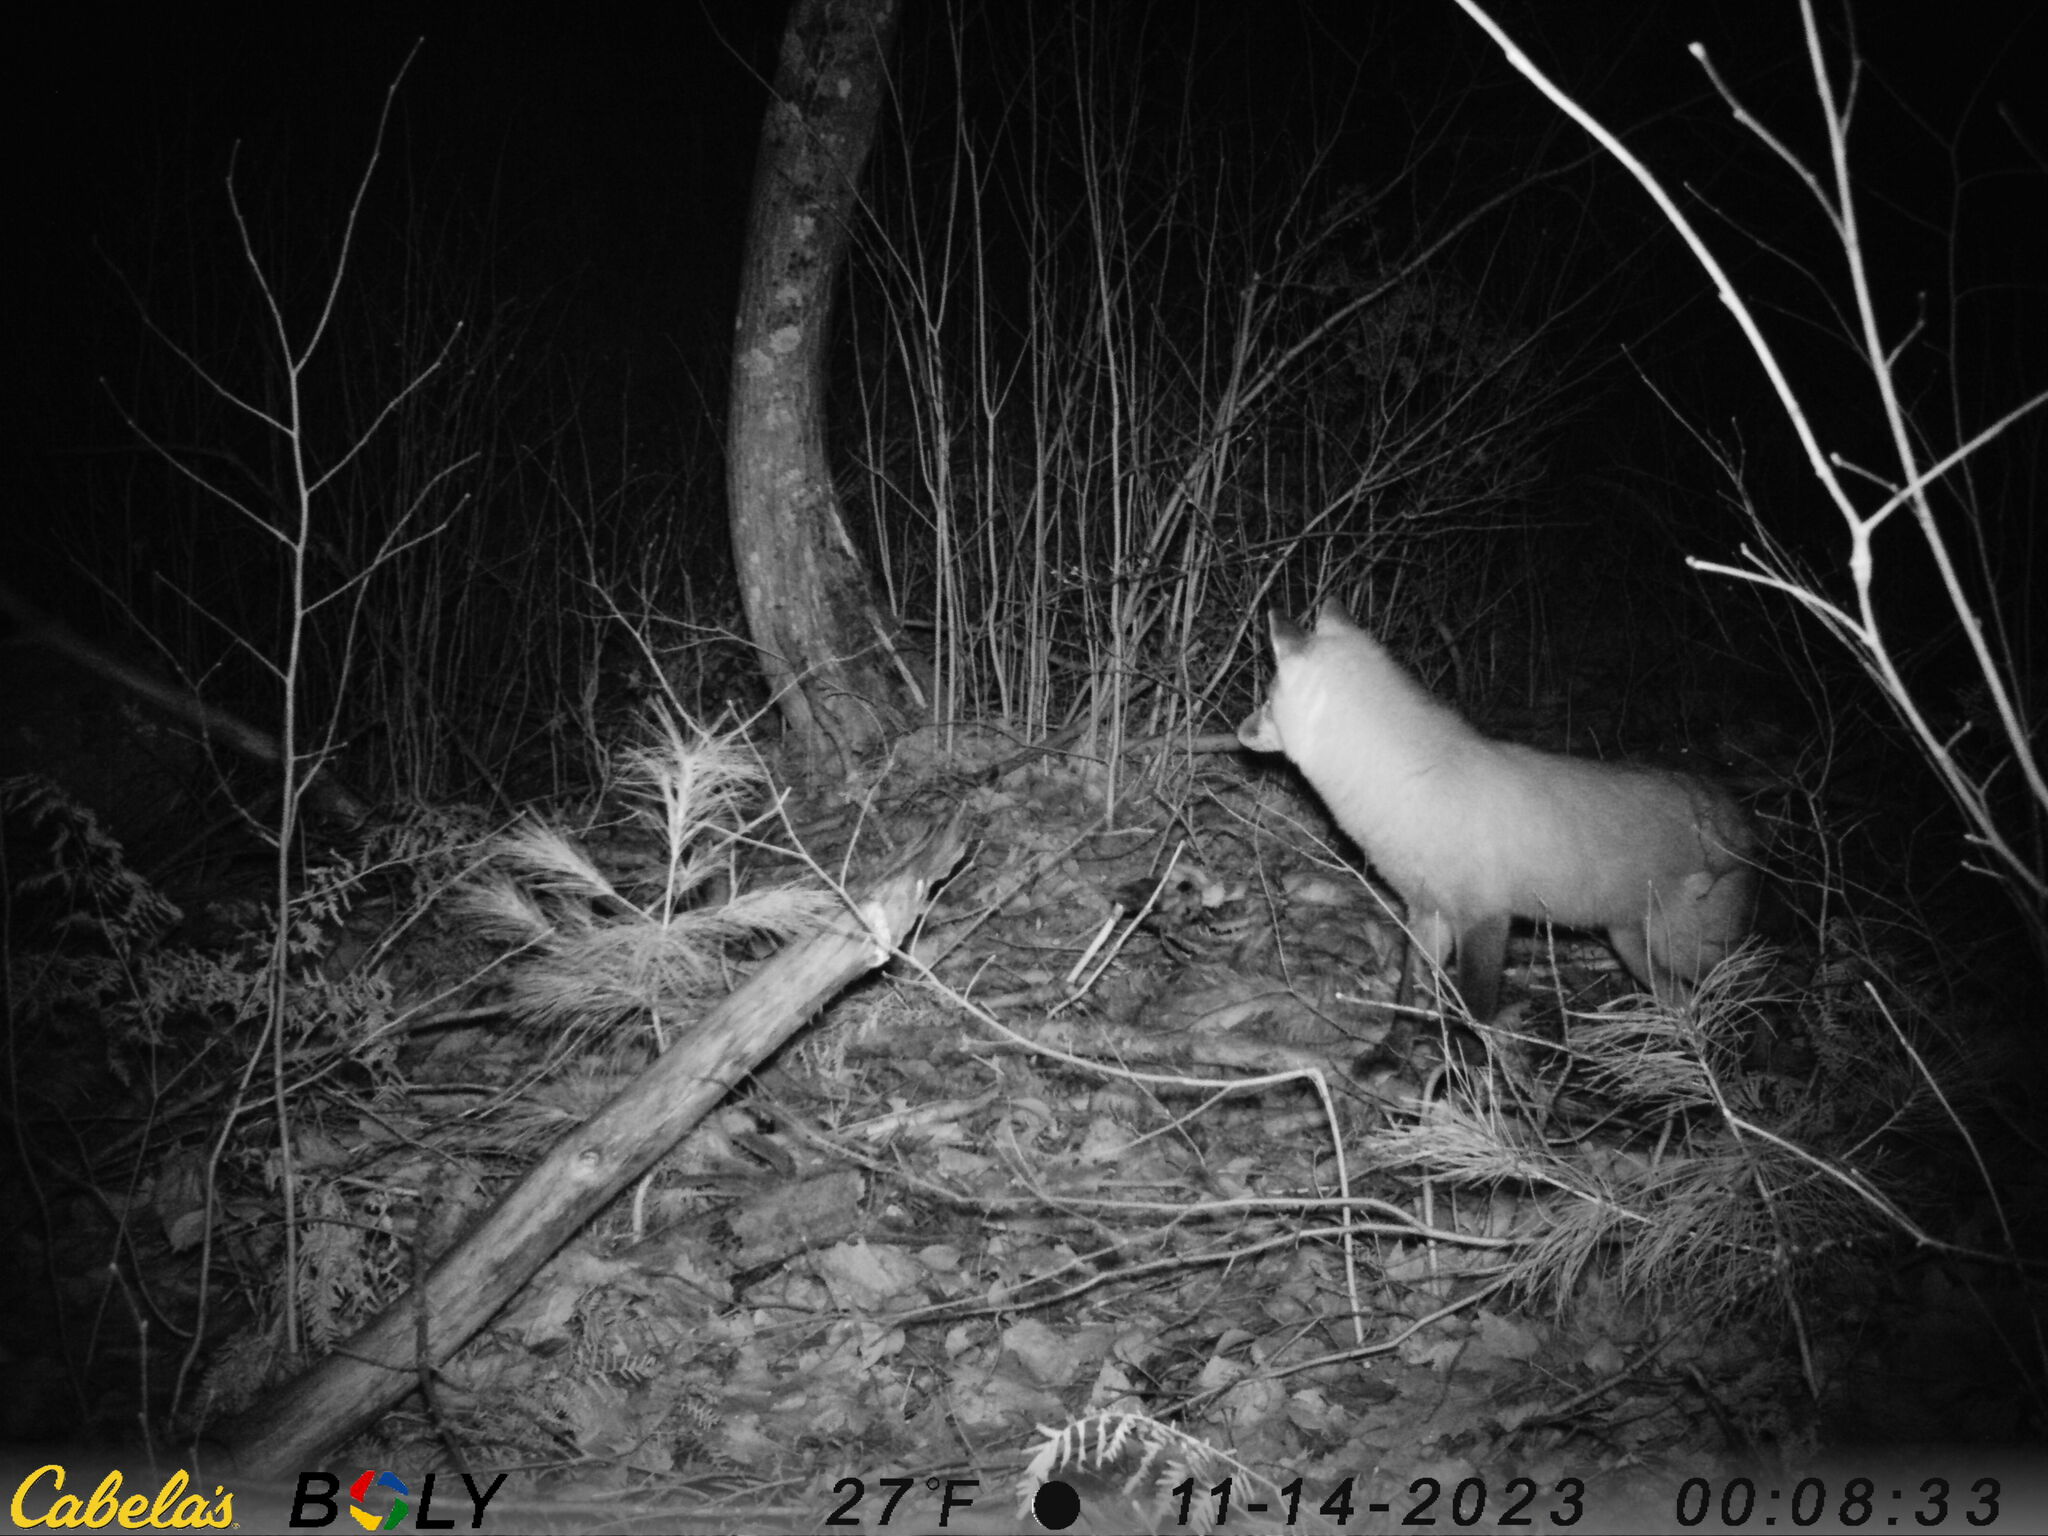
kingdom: Animalia
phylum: Chordata
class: Mammalia
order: Carnivora
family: Canidae
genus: Vulpes
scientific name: Vulpes vulpes
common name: Red fox
